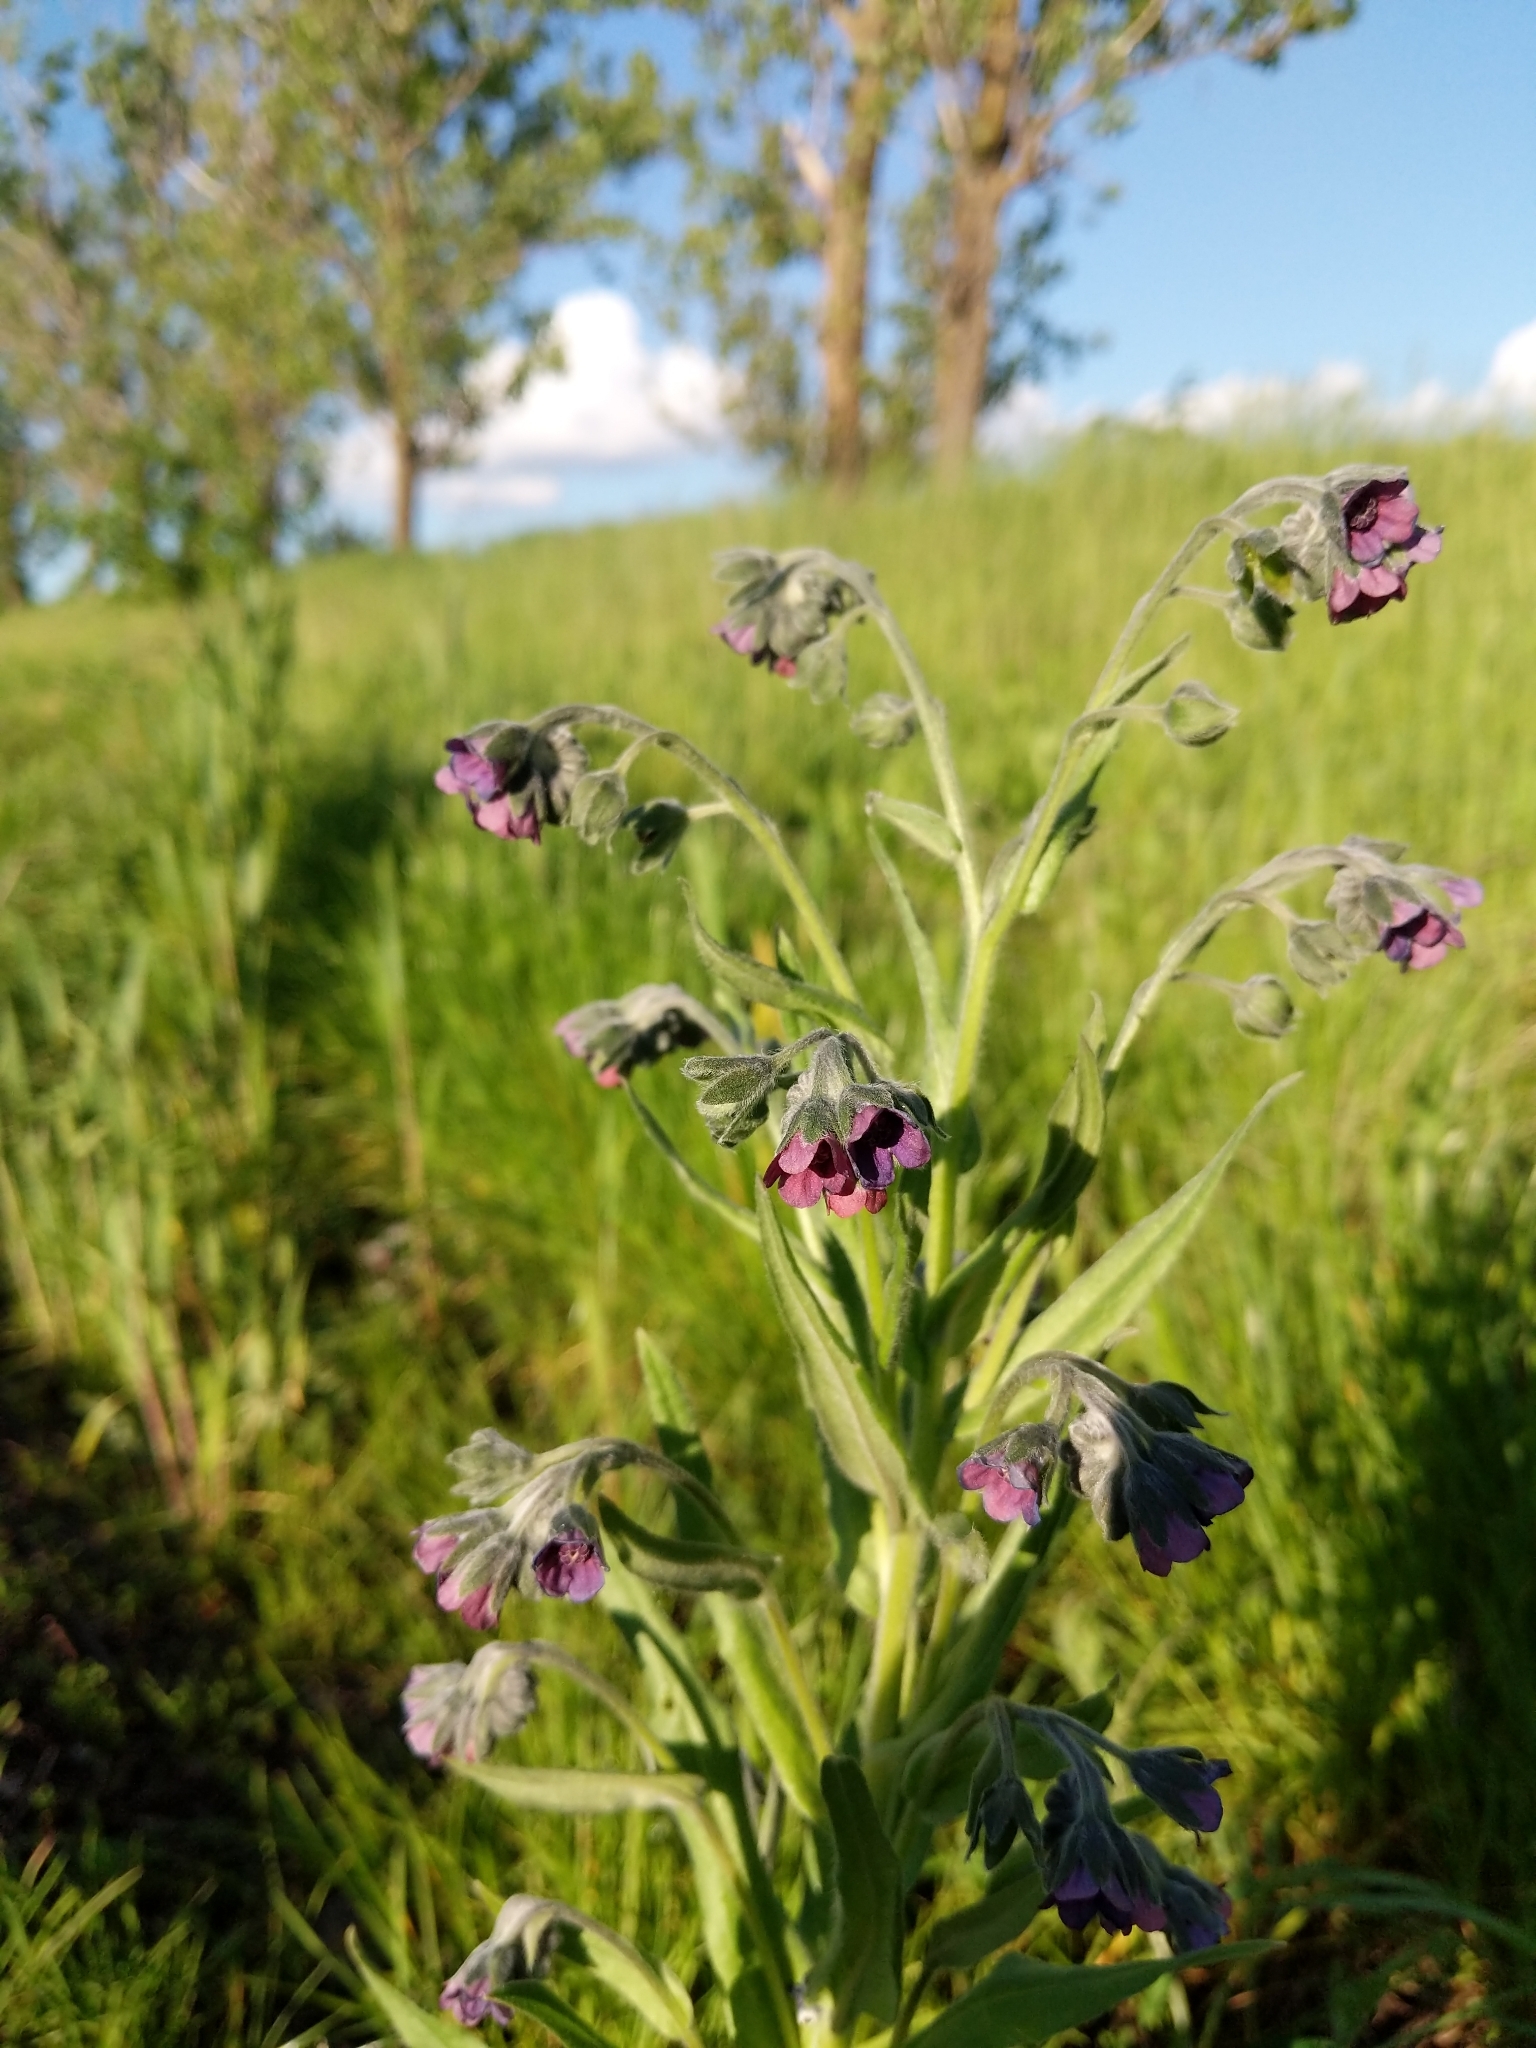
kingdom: Plantae
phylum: Tracheophyta
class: Magnoliopsida
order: Boraginales
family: Boraginaceae
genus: Cynoglossum
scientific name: Cynoglossum officinale
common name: Hound's-tongue
